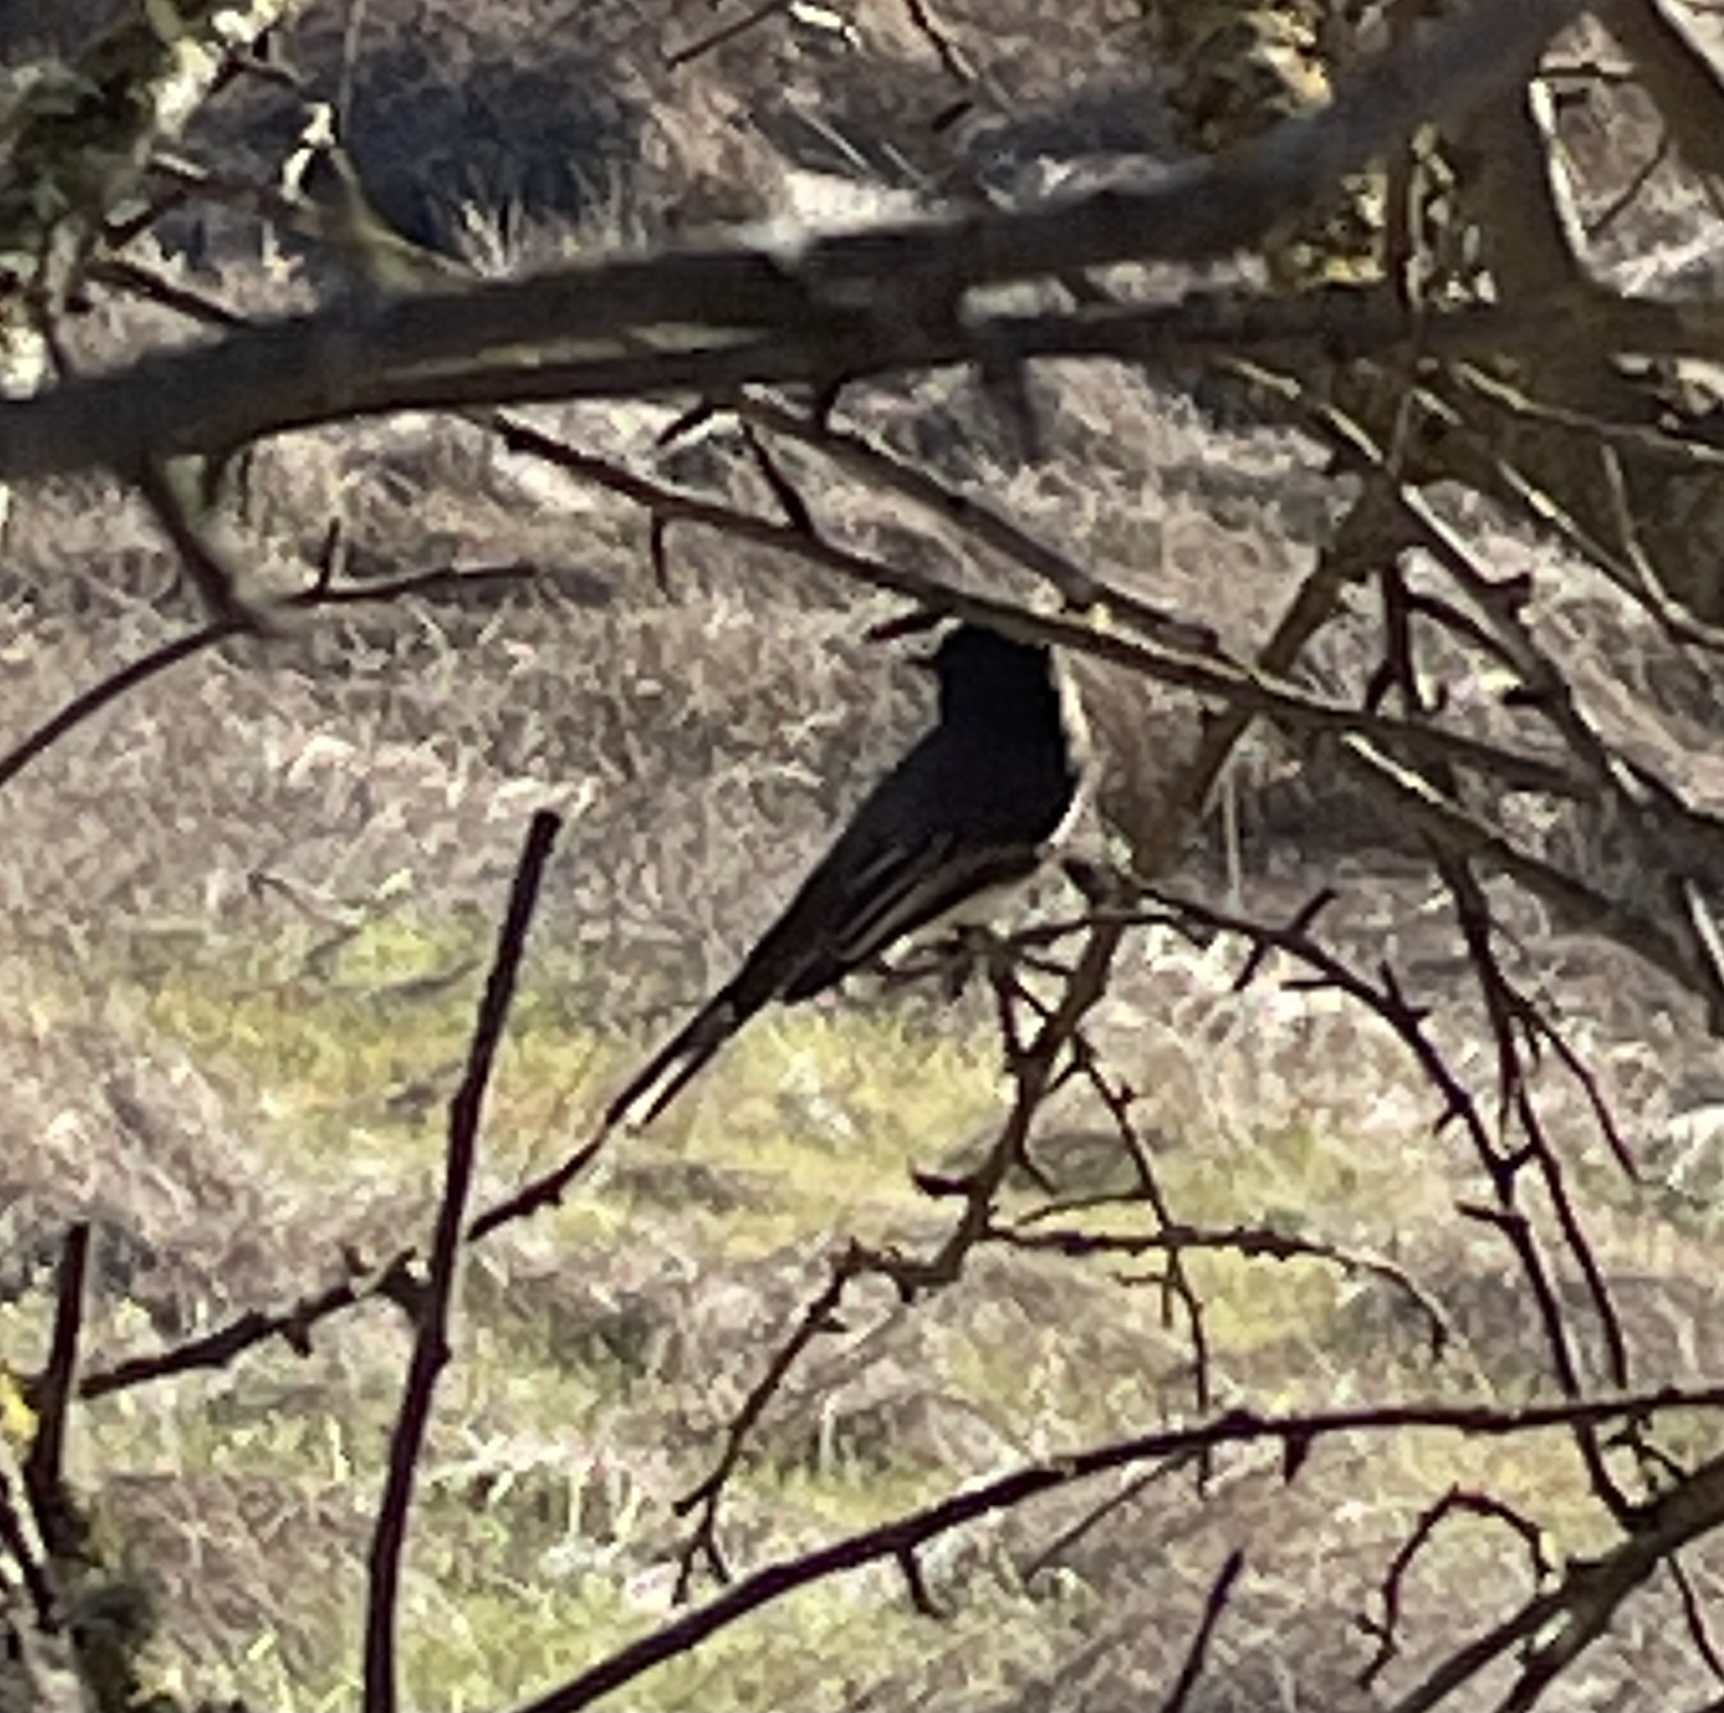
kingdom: Animalia
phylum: Chordata
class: Aves
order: Passeriformes
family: Tyrannidae
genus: Sayornis
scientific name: Sayornis nigricans
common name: Black phoebe
